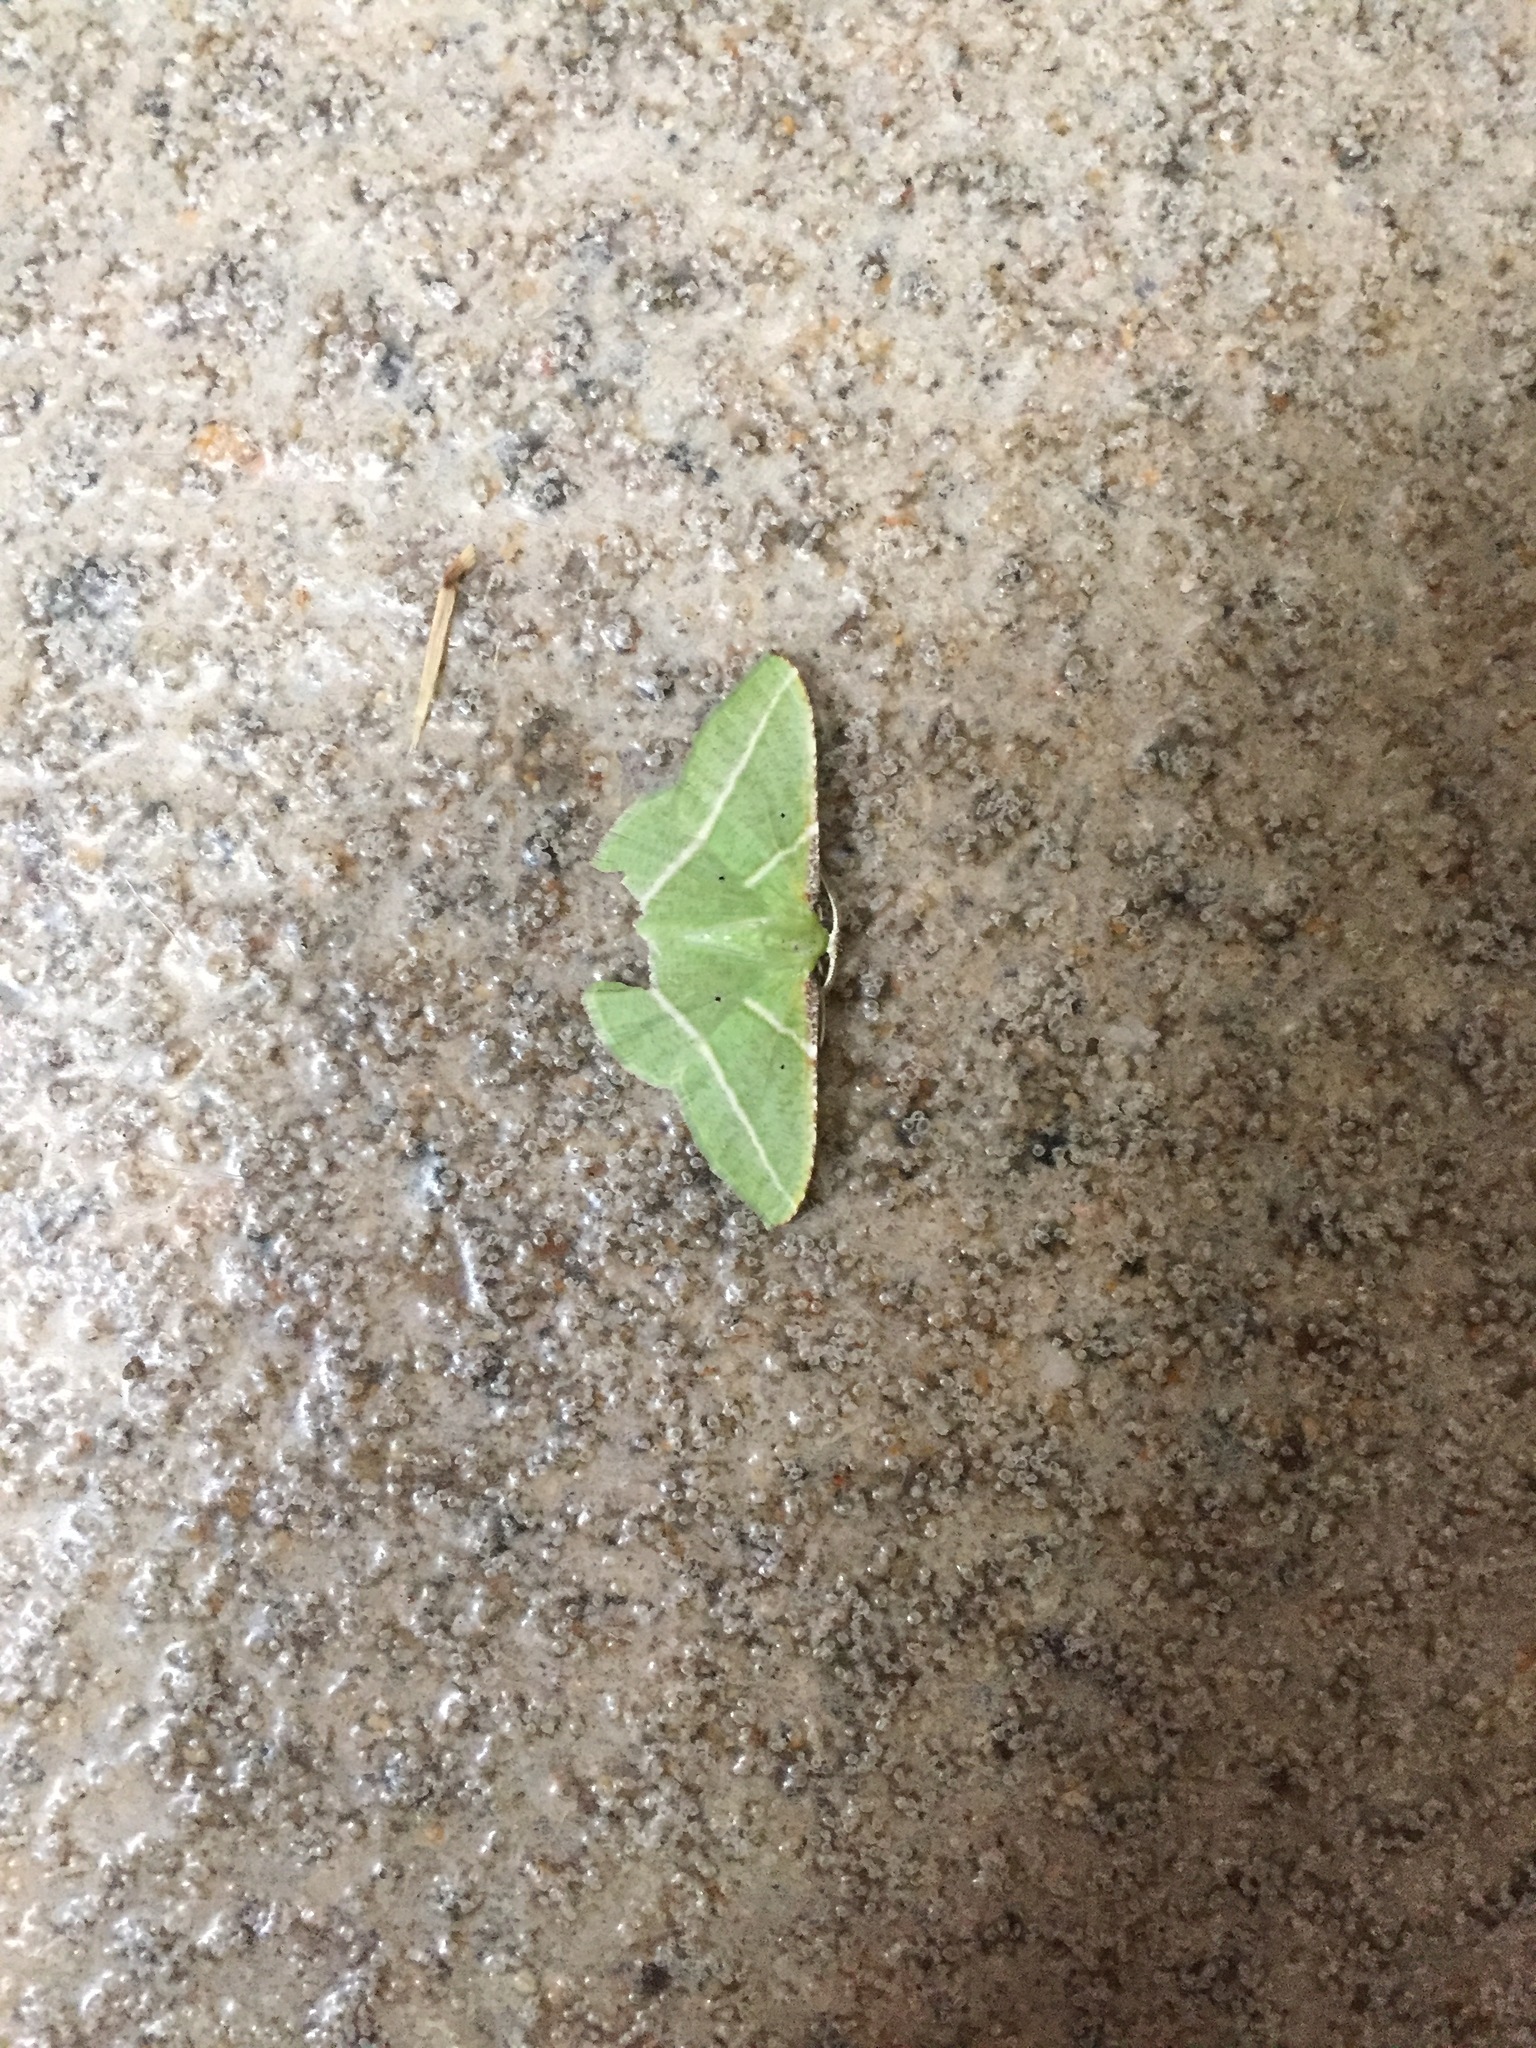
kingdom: Animalia
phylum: Arthropoda
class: Insecta
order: Lepidoptera
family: Geometridae
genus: Dichorda
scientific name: Dichorda illustraria
